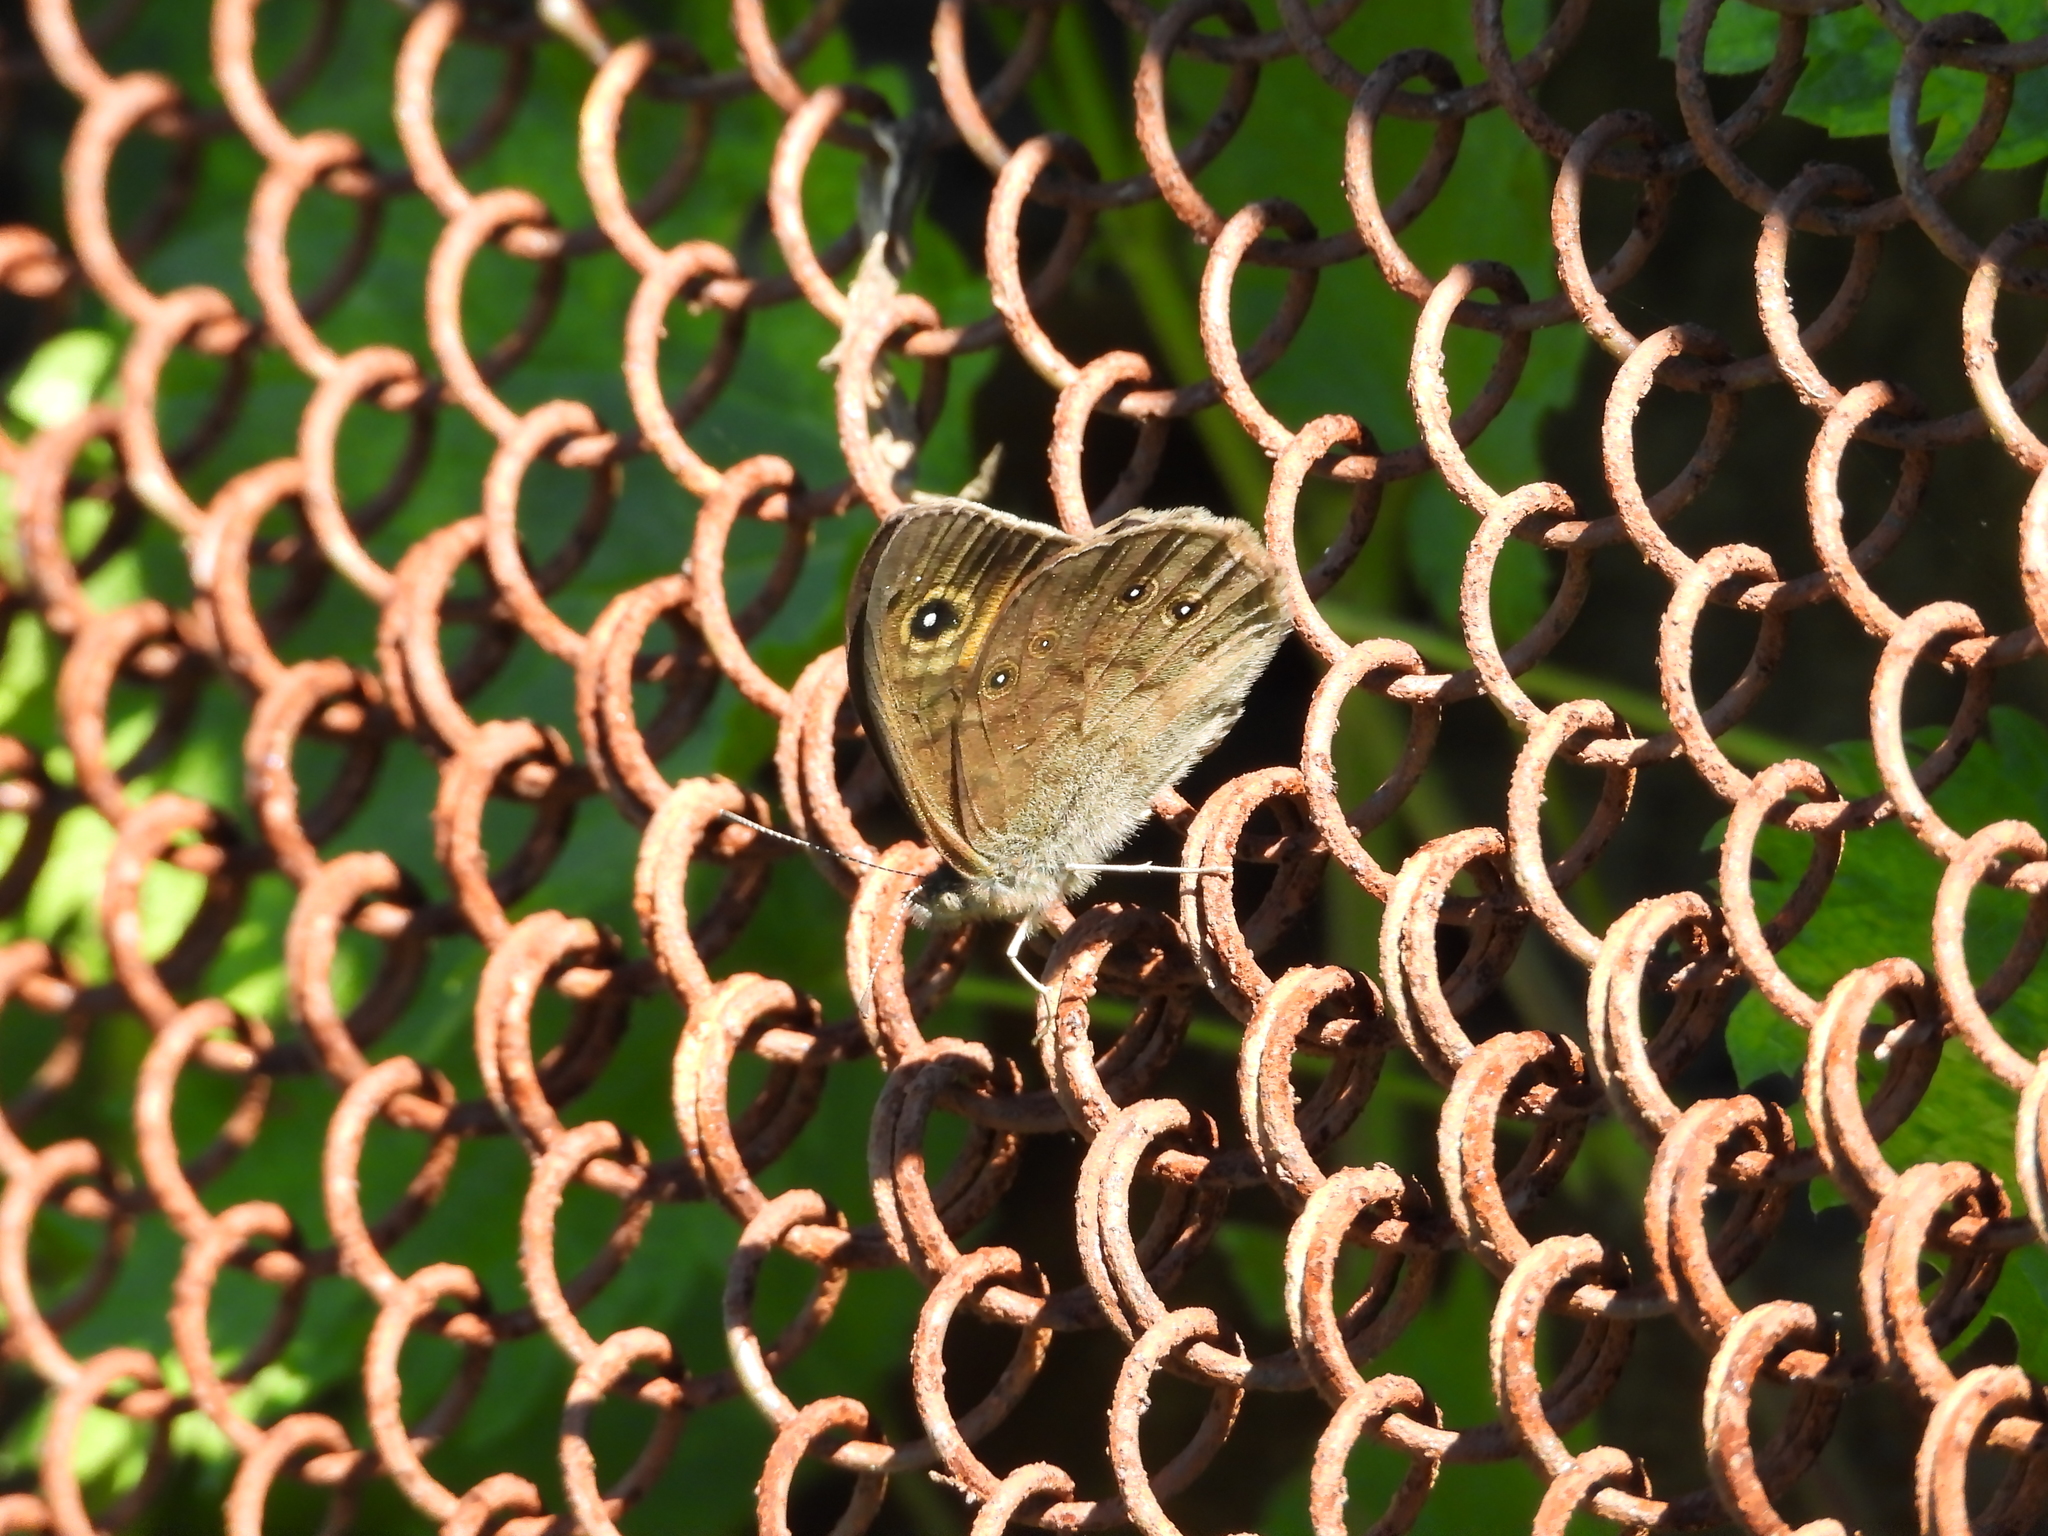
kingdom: Animalia
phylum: Arthropoda
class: Insecta
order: Lepidoptera
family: Nymphalidae
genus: Pararge
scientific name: Pararge Lasiommata maera
